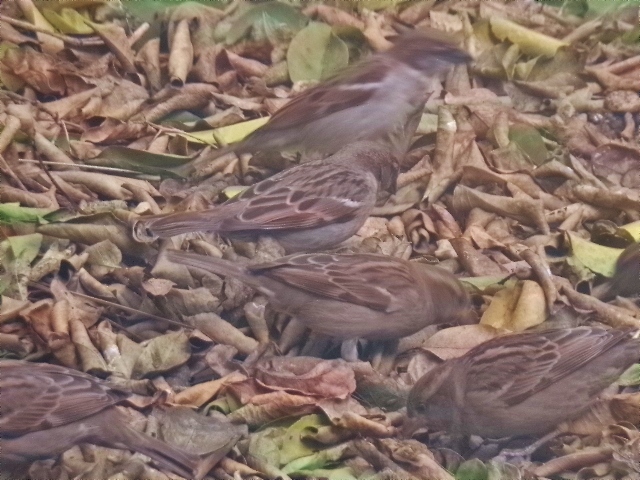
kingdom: Animalia
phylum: Chordata
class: Aves
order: Passeriformes
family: Passeridae
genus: Passer
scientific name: Passer domesticus
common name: House sparrow
